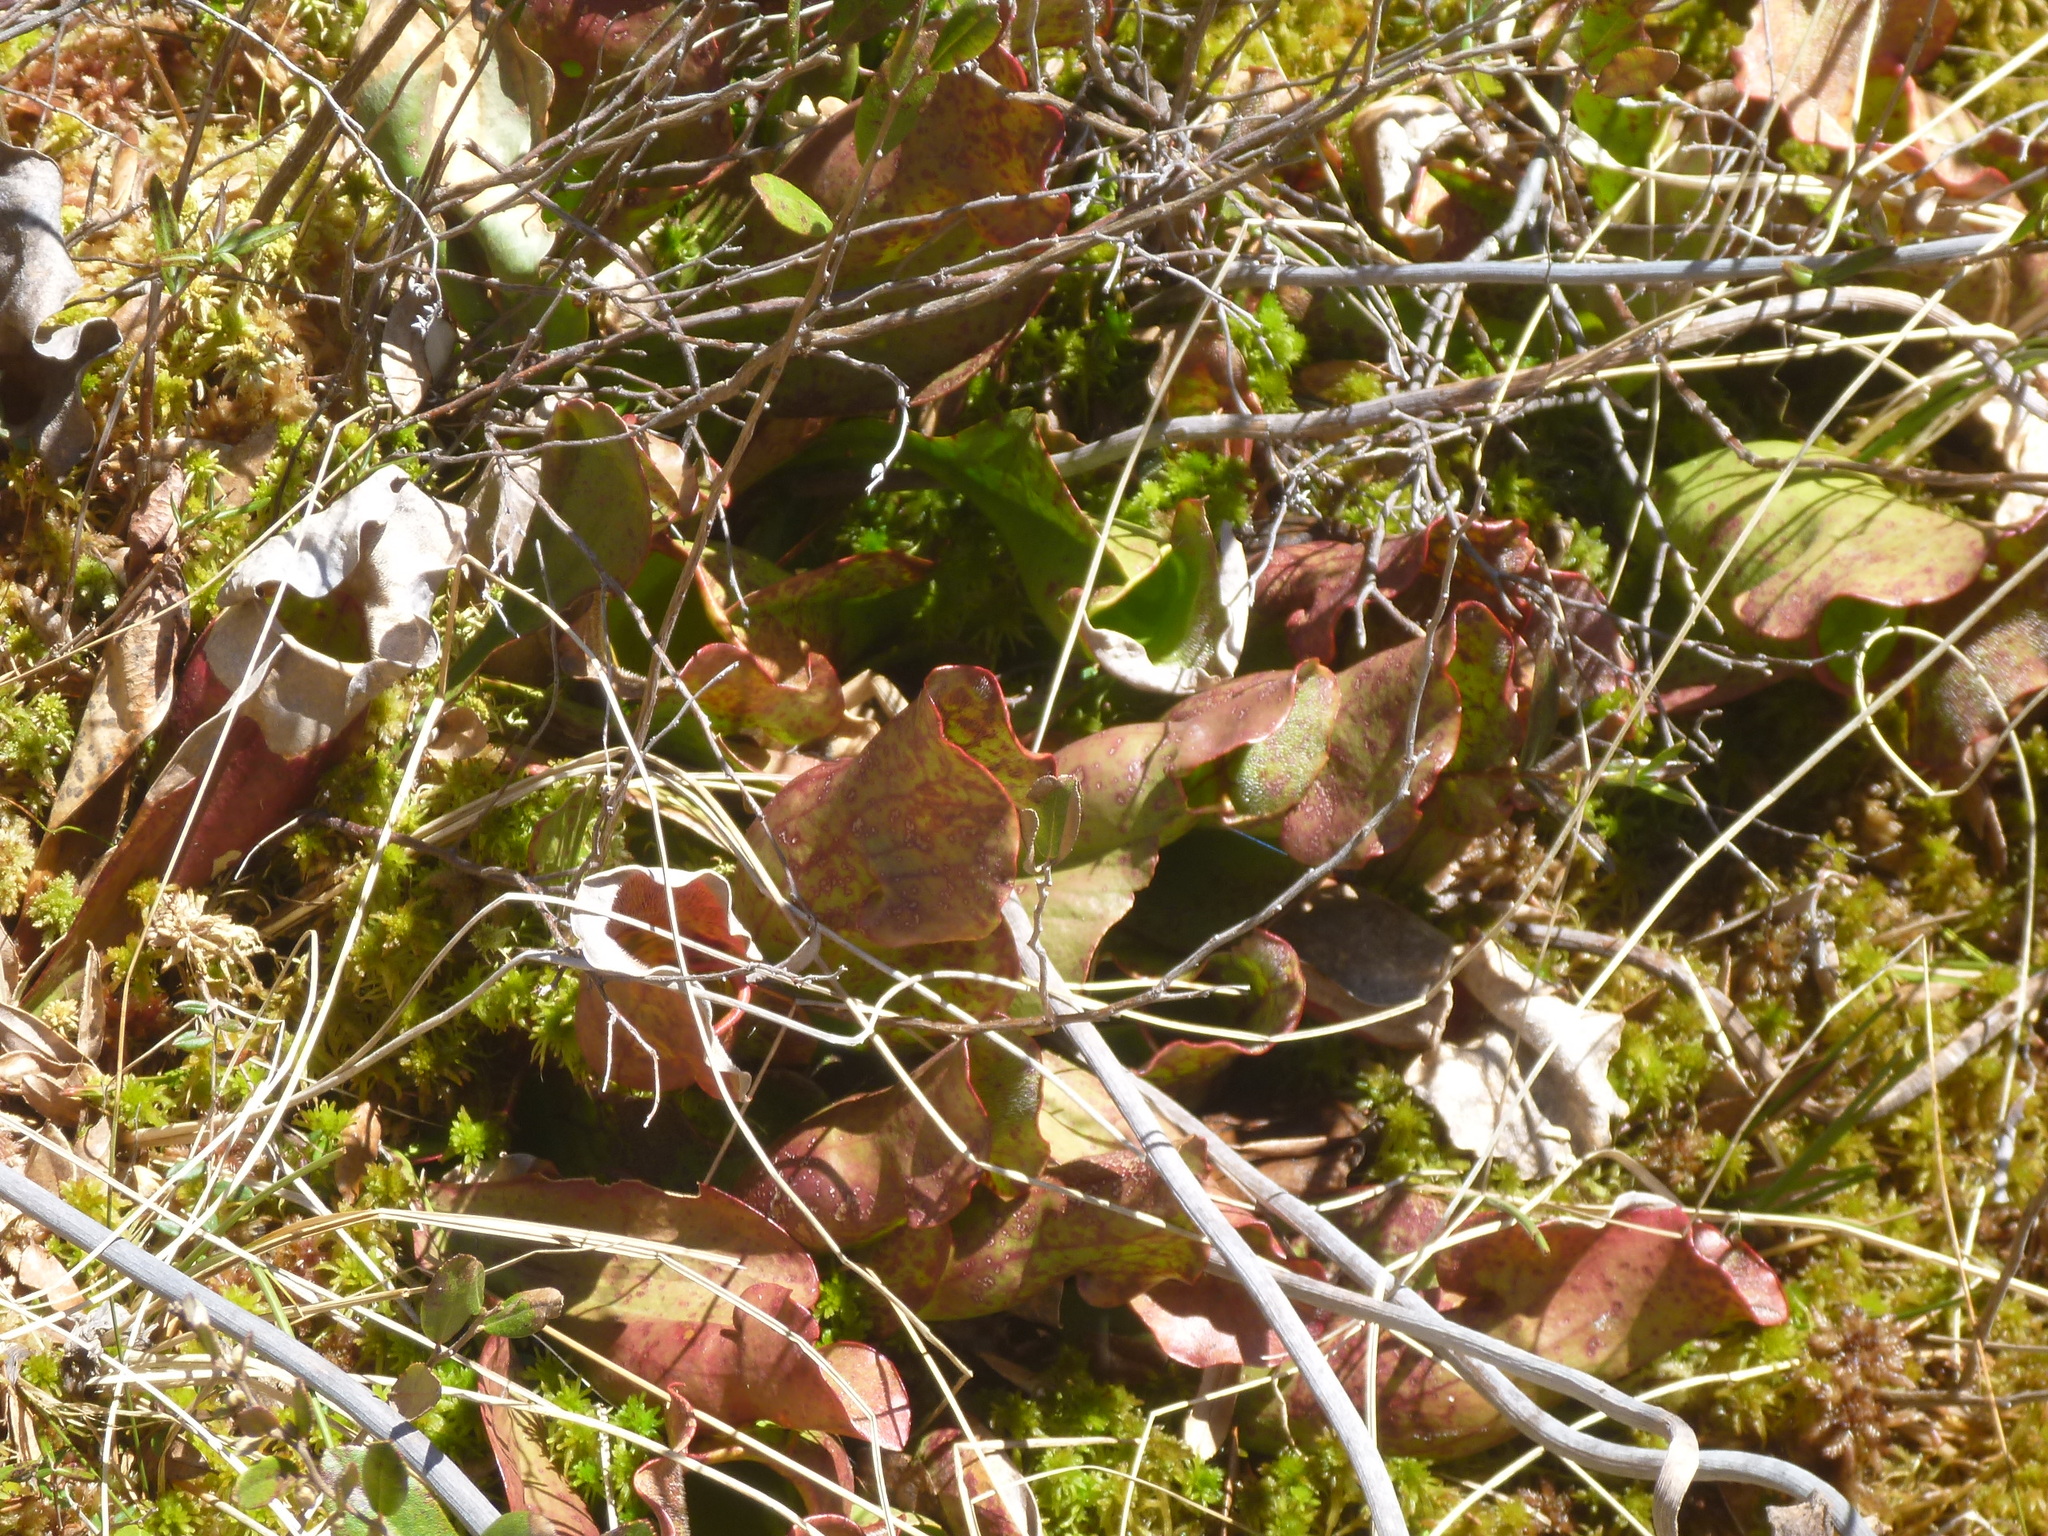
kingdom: Plantae
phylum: Tracheophyta
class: Magnoliopsida
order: Ericales
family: Sarraceniaceae
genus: Sarracenia
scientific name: Sarracenia purpurea
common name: Pitcherplant
